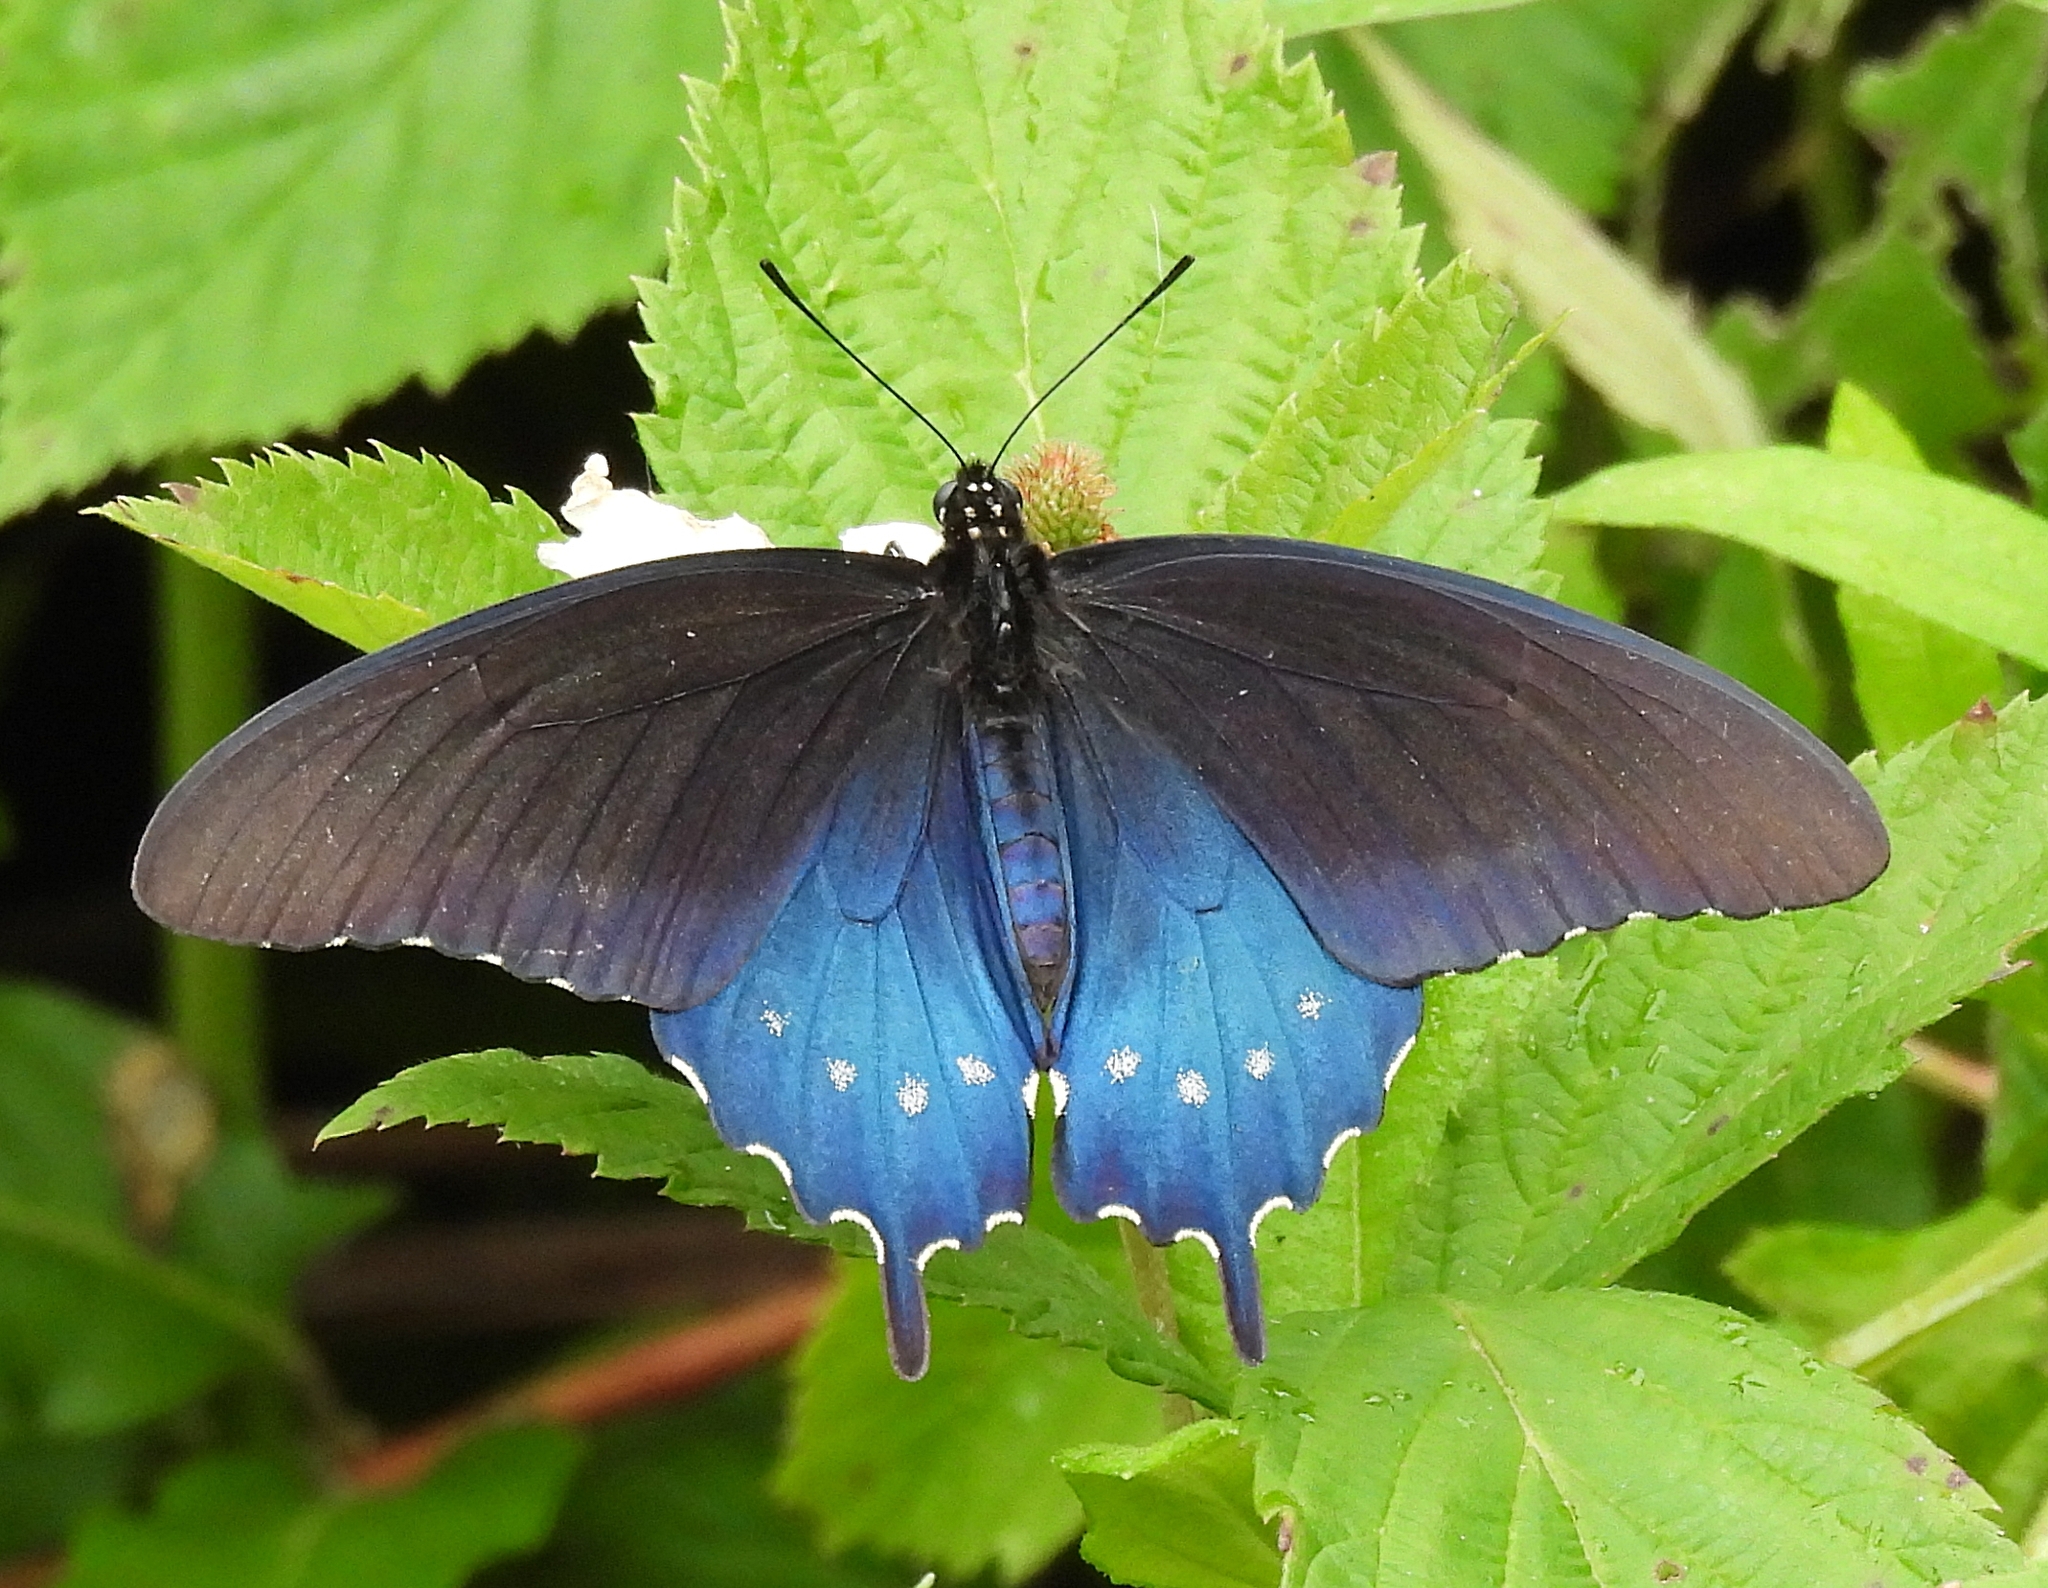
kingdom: Animalia
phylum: Arthropoda
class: Insecta
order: Lepidoptera
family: Papilionidae
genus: Battus
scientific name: Battus philenor
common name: Pipevine swallowtail
